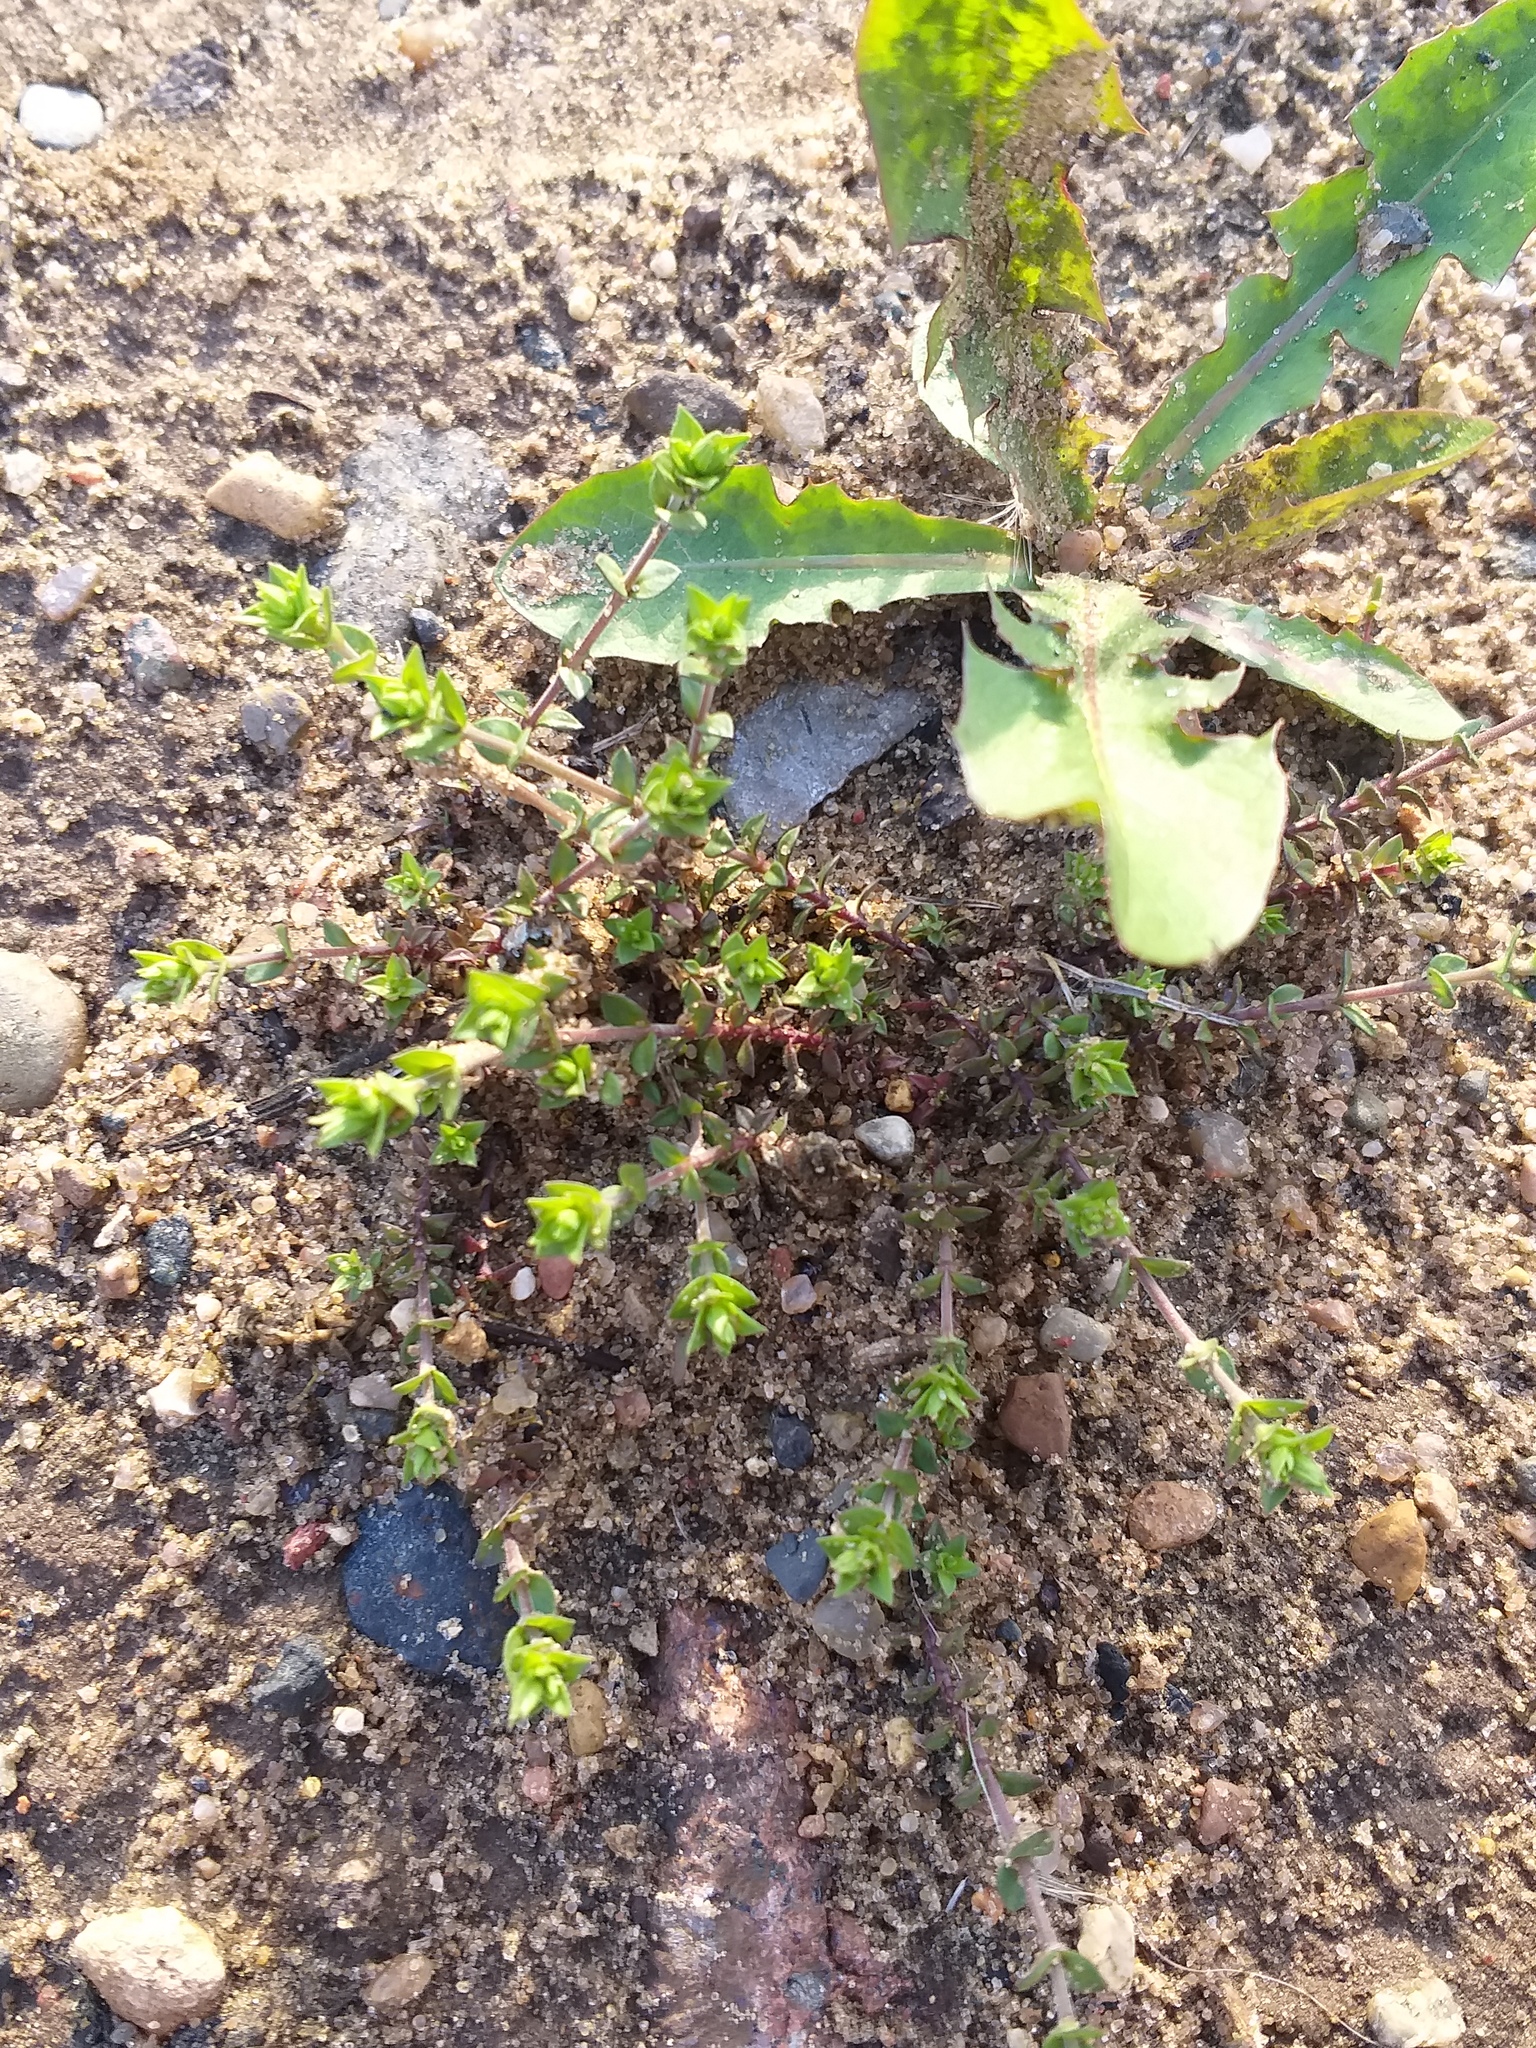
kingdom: Plantae
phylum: Tracheophyta
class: Magnoliopsida
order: Caryophyllales
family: Caryophyllaceae
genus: Arenaria
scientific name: Arenaria serpyllifolia
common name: Thyme-leaved sandwort
